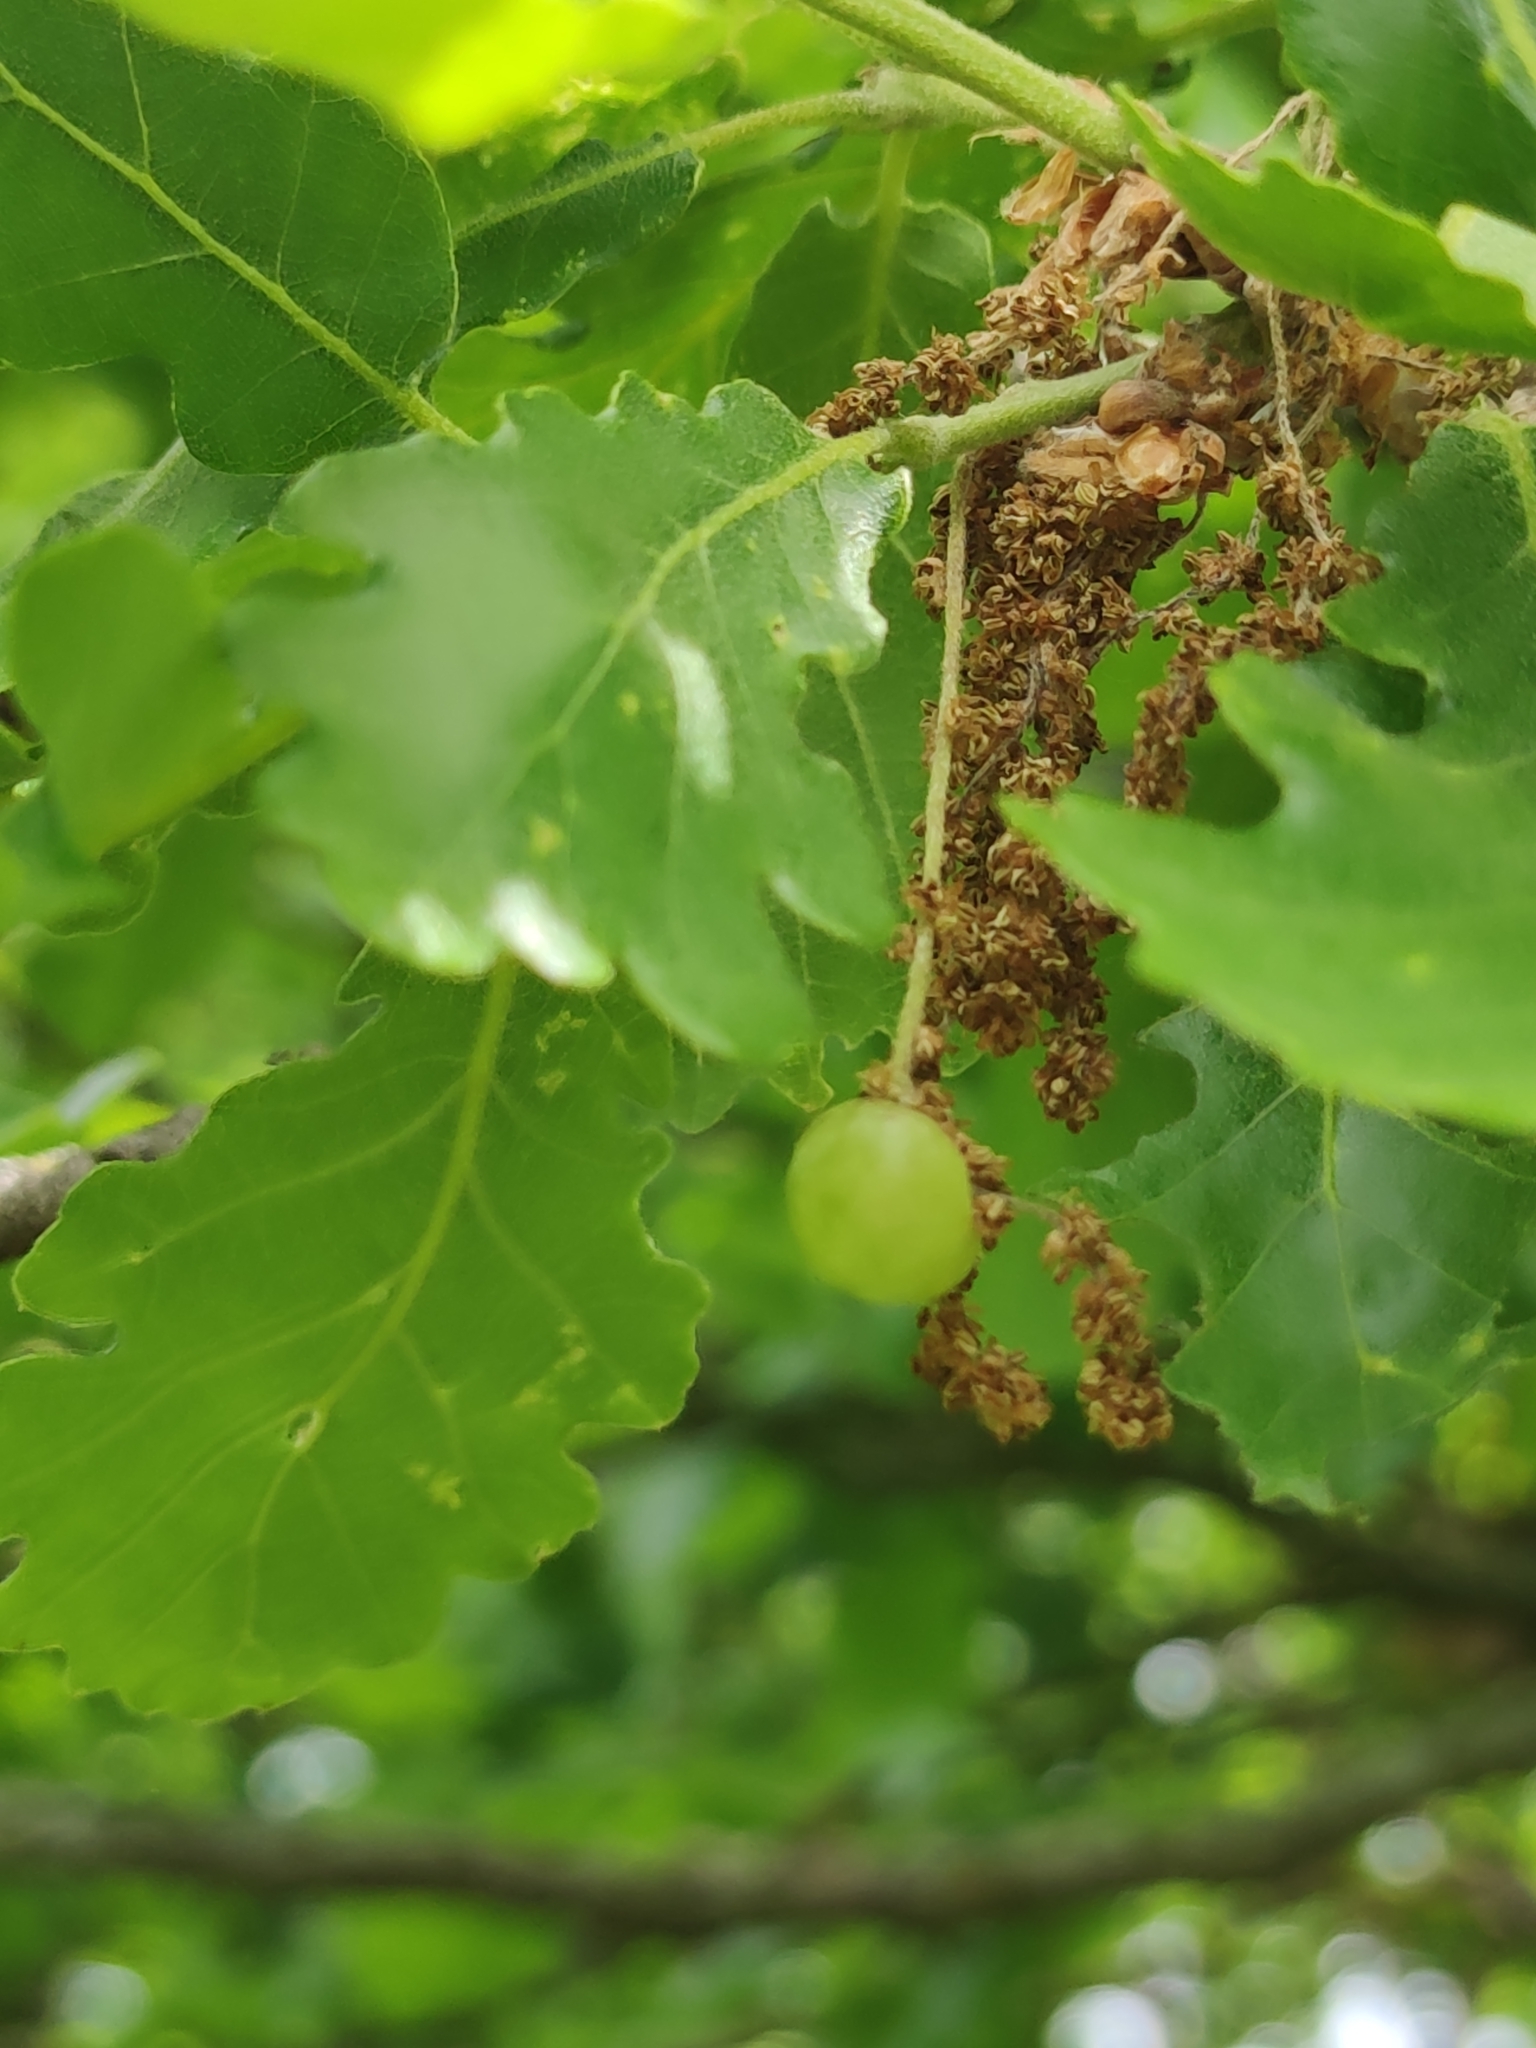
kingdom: Animalia
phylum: Arthropoda
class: Insecta
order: Hymenoptera
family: Cynipidae
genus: Neuroterus
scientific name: Neuroterus quercusbaccarum
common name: Common spangle gall
